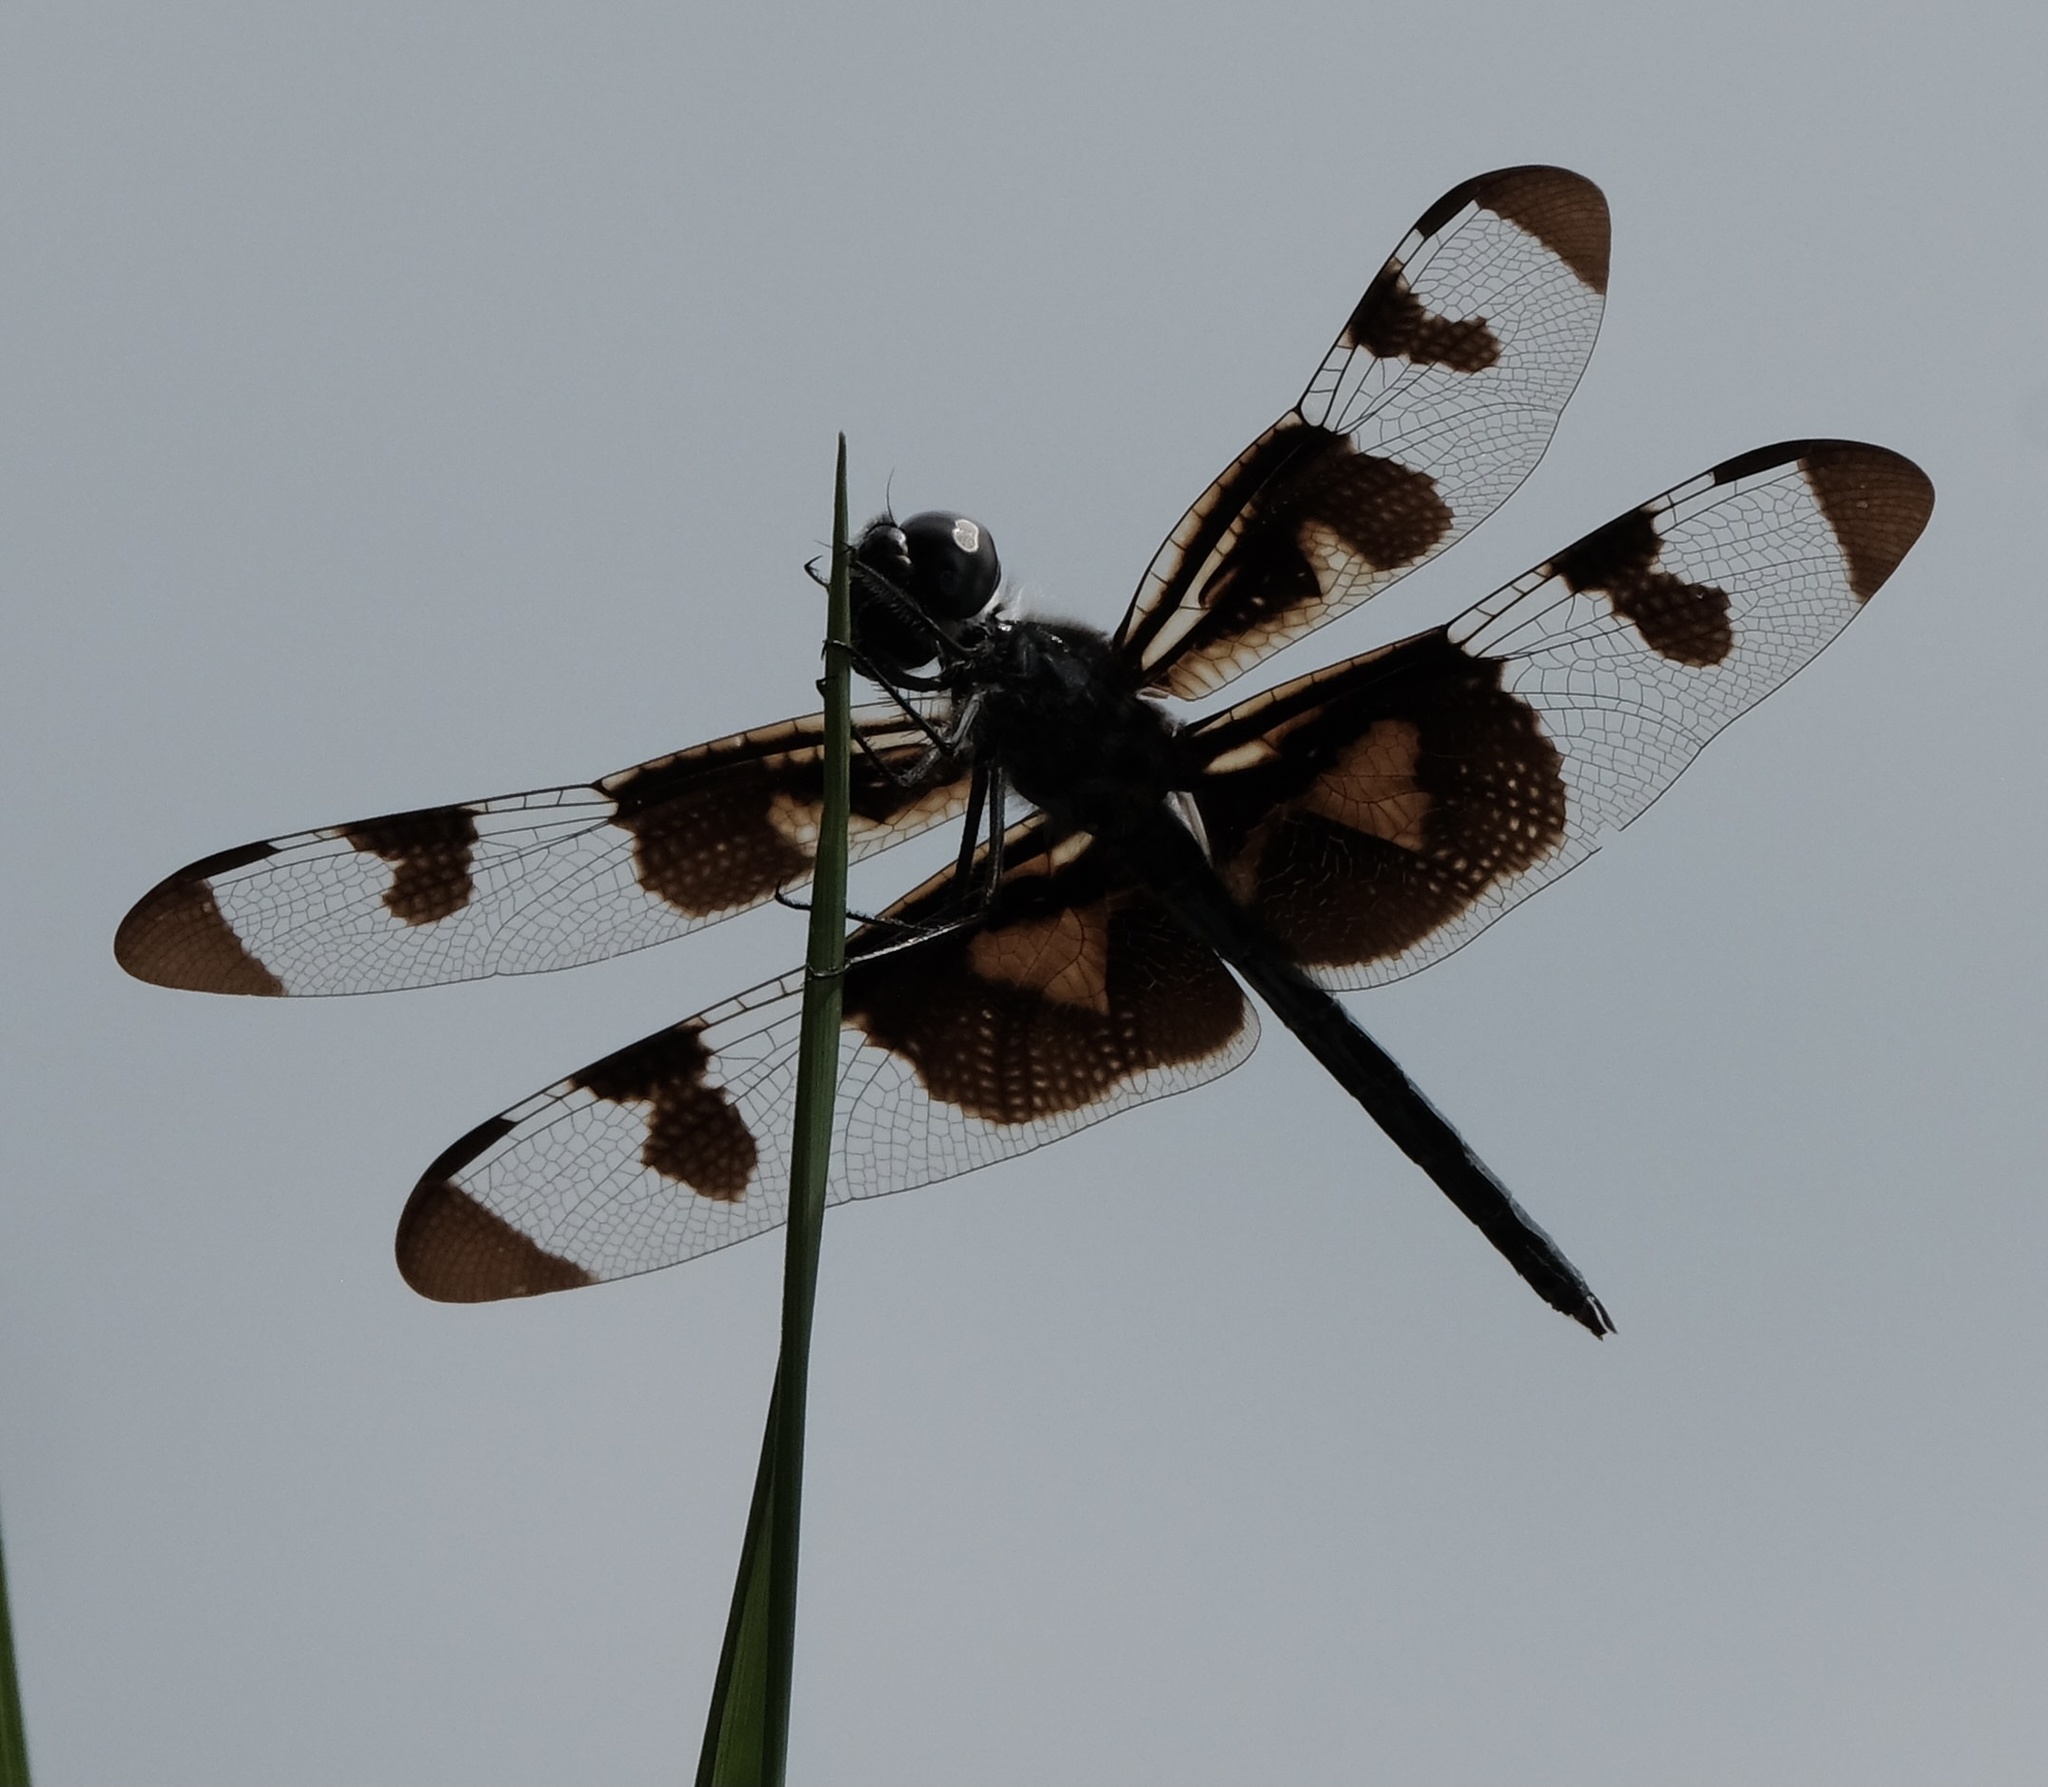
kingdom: Animalia
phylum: Arthropoda
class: Insecta
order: Odonata
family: Libellulidae
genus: Celithemis
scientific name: Celithemis fasciata
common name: Banded pennant
